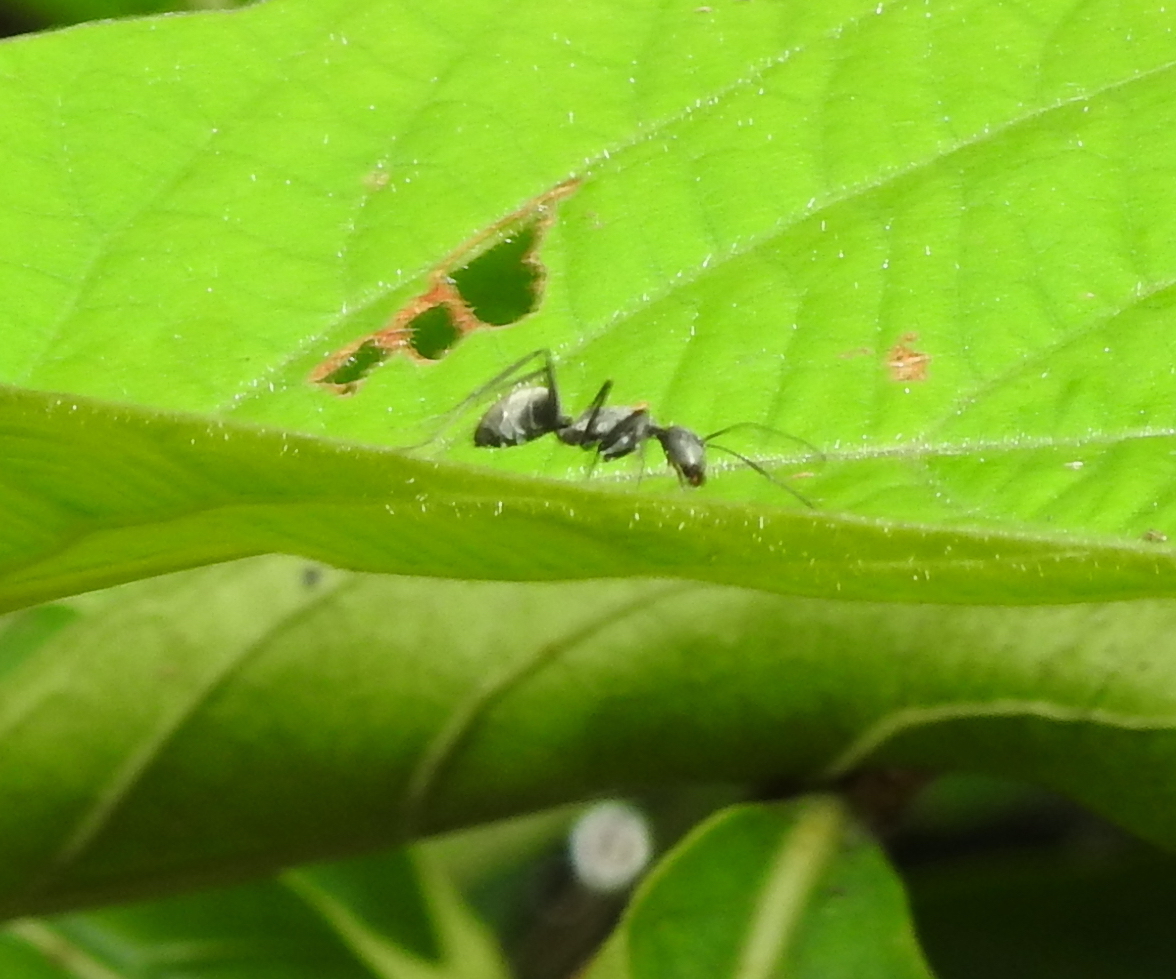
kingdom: Animalia
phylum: Arthropoda
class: Insecta
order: Hymenoptera
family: Formicidae
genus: Camponotus
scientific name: Camponotus parius
